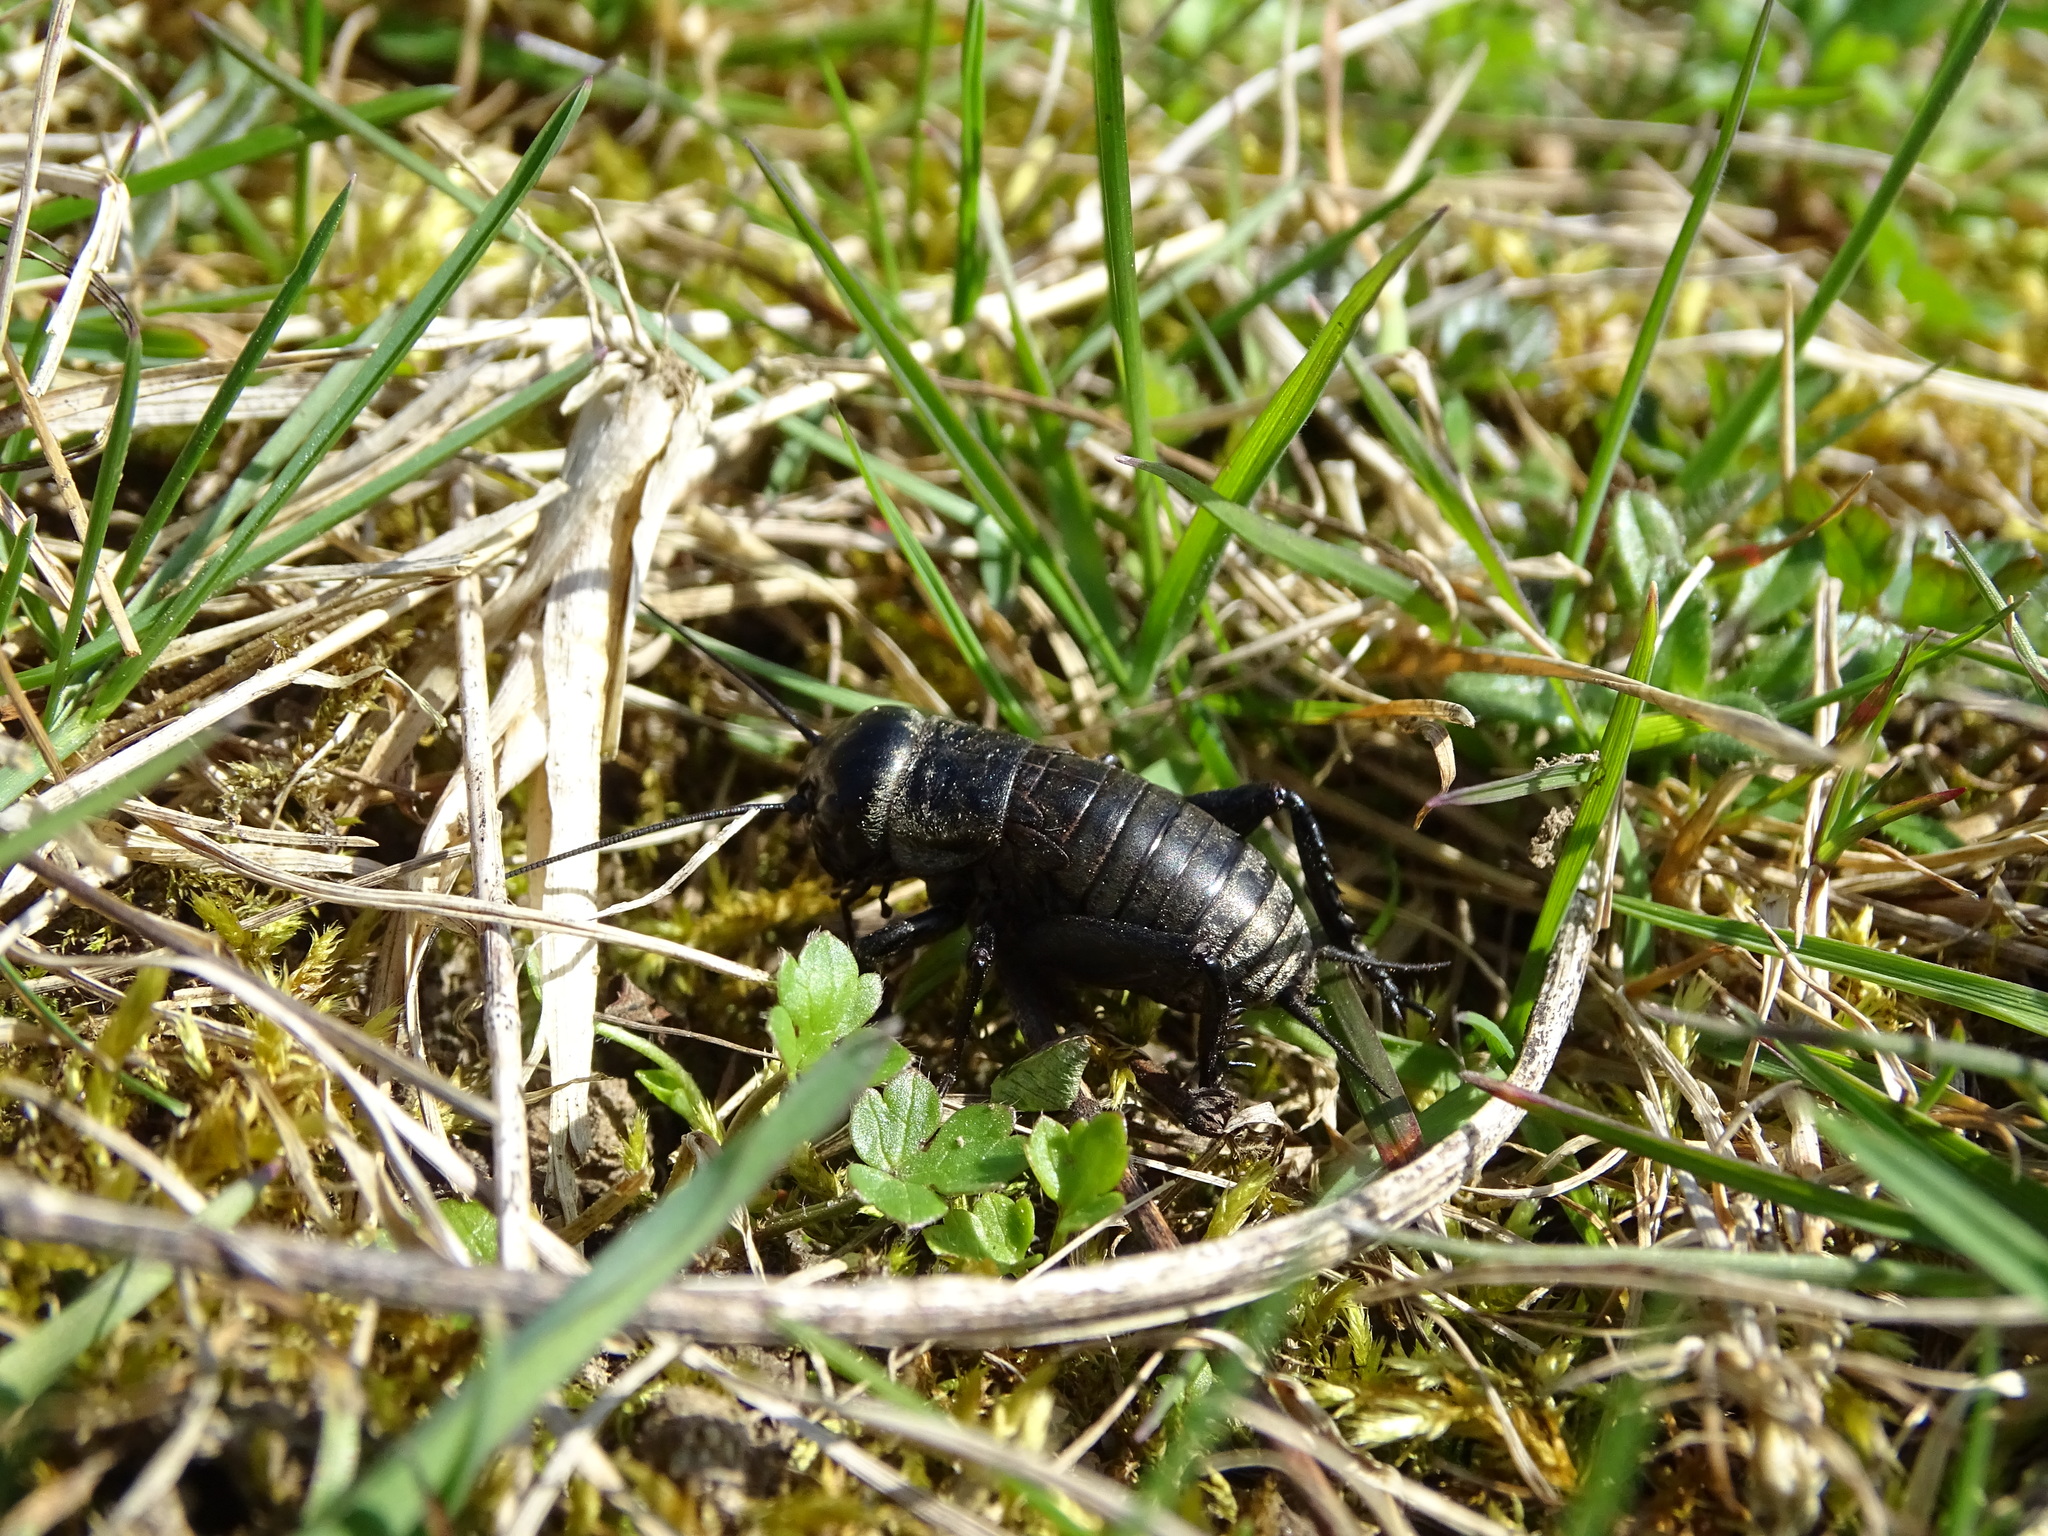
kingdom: Animalia
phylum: Arthropoda
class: Insecta
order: Orthoptera
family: Gryllidae
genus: Gryllus
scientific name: Gryllus campestris
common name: Field cricket
